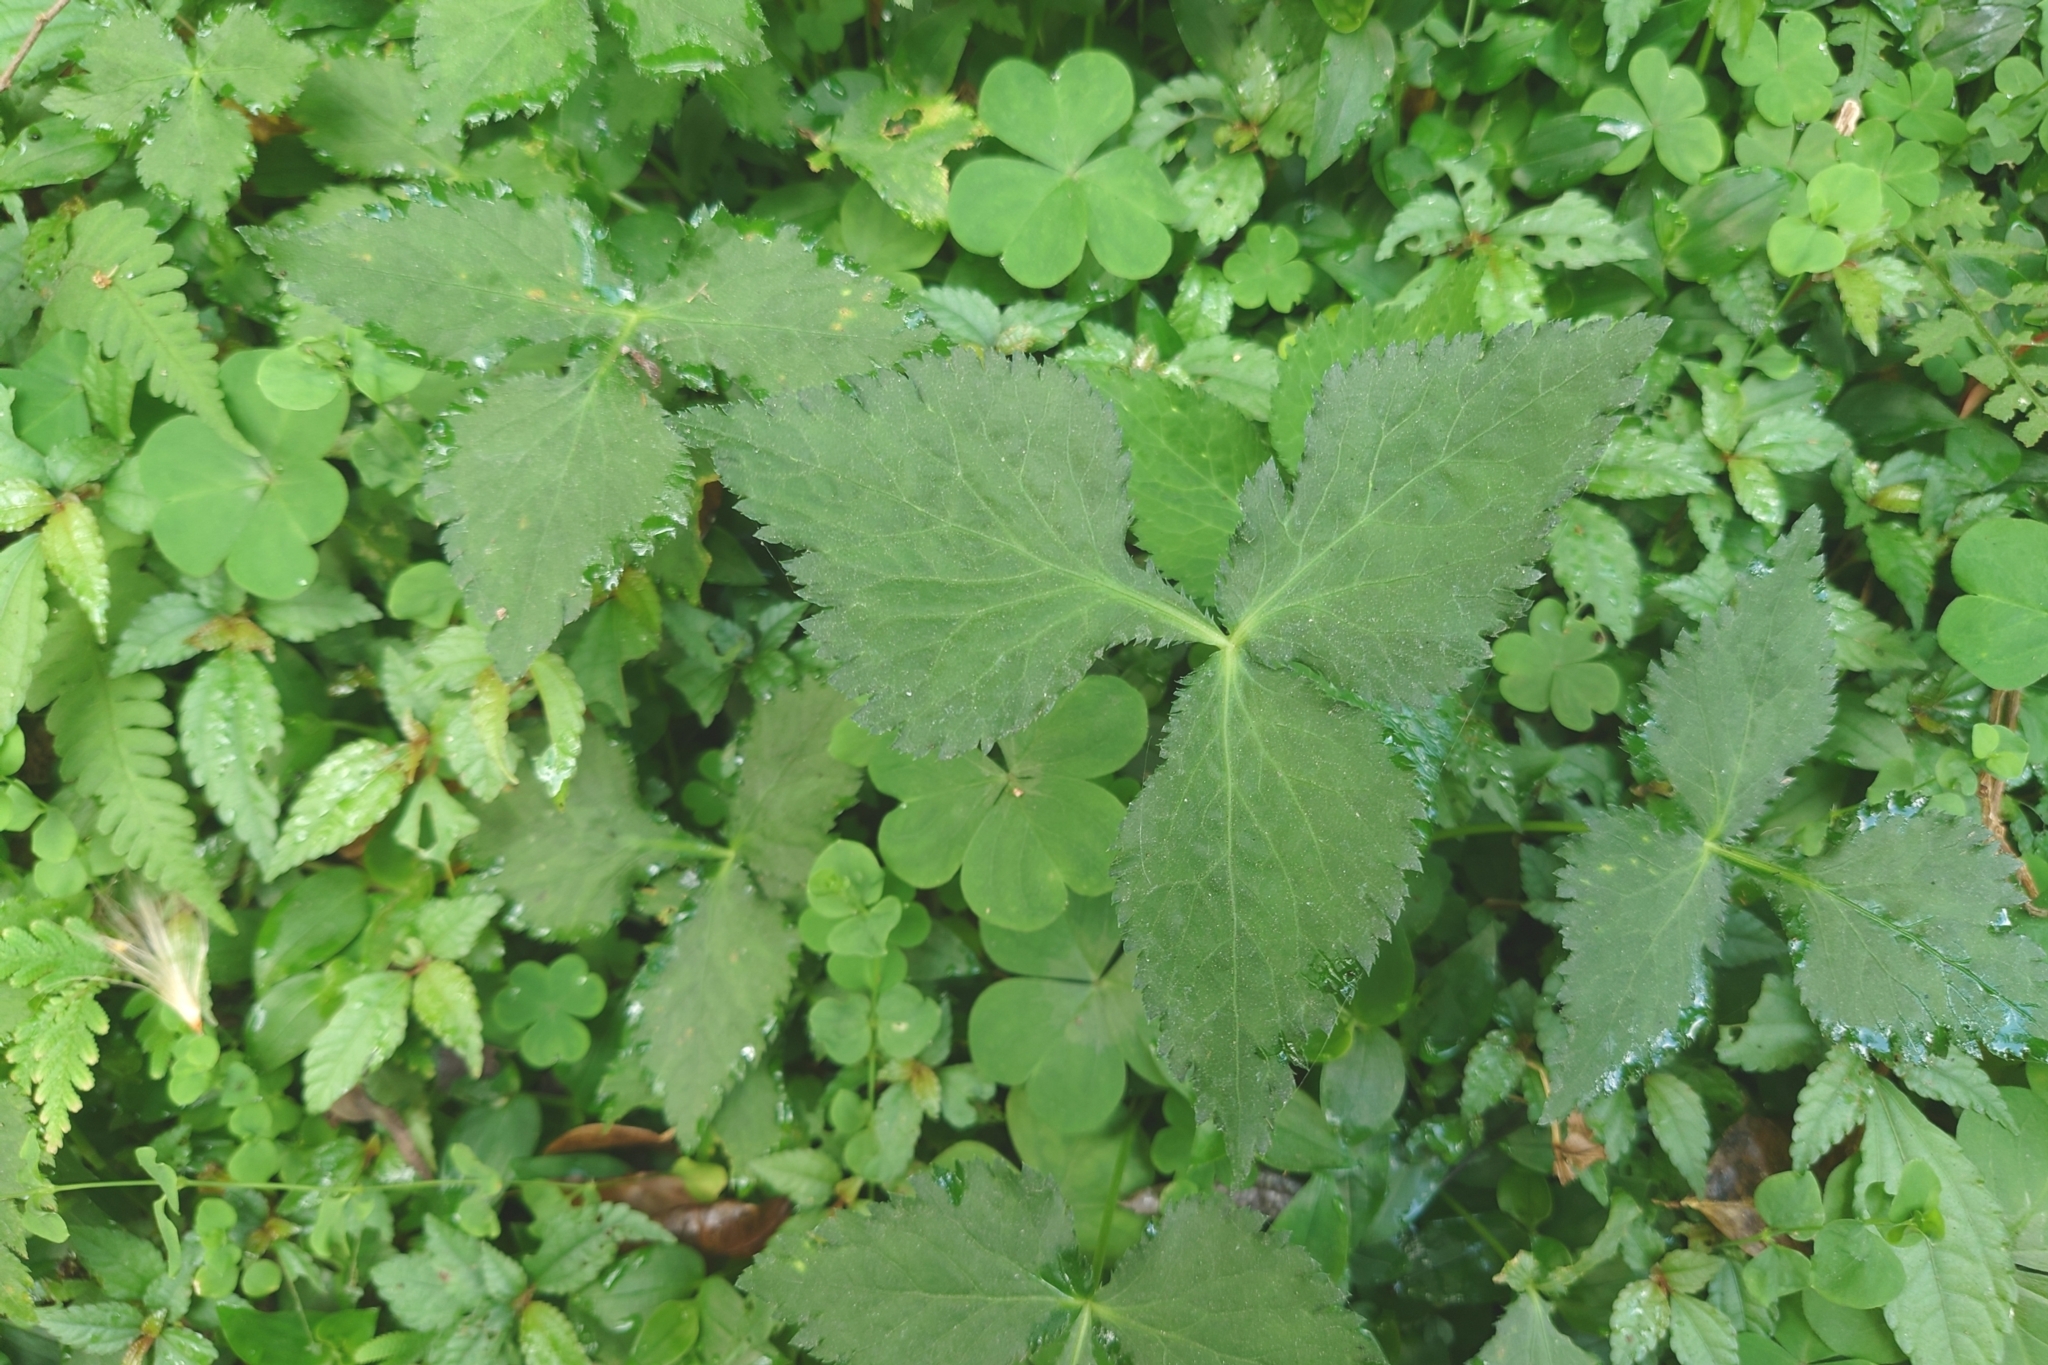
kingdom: Plantae
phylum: Tracheophyta
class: Magnoliopsida
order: Apiales
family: Apiaceae
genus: Cryptotaenia
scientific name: Cryptotaenia japonica
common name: Japanese cryptotaenia
